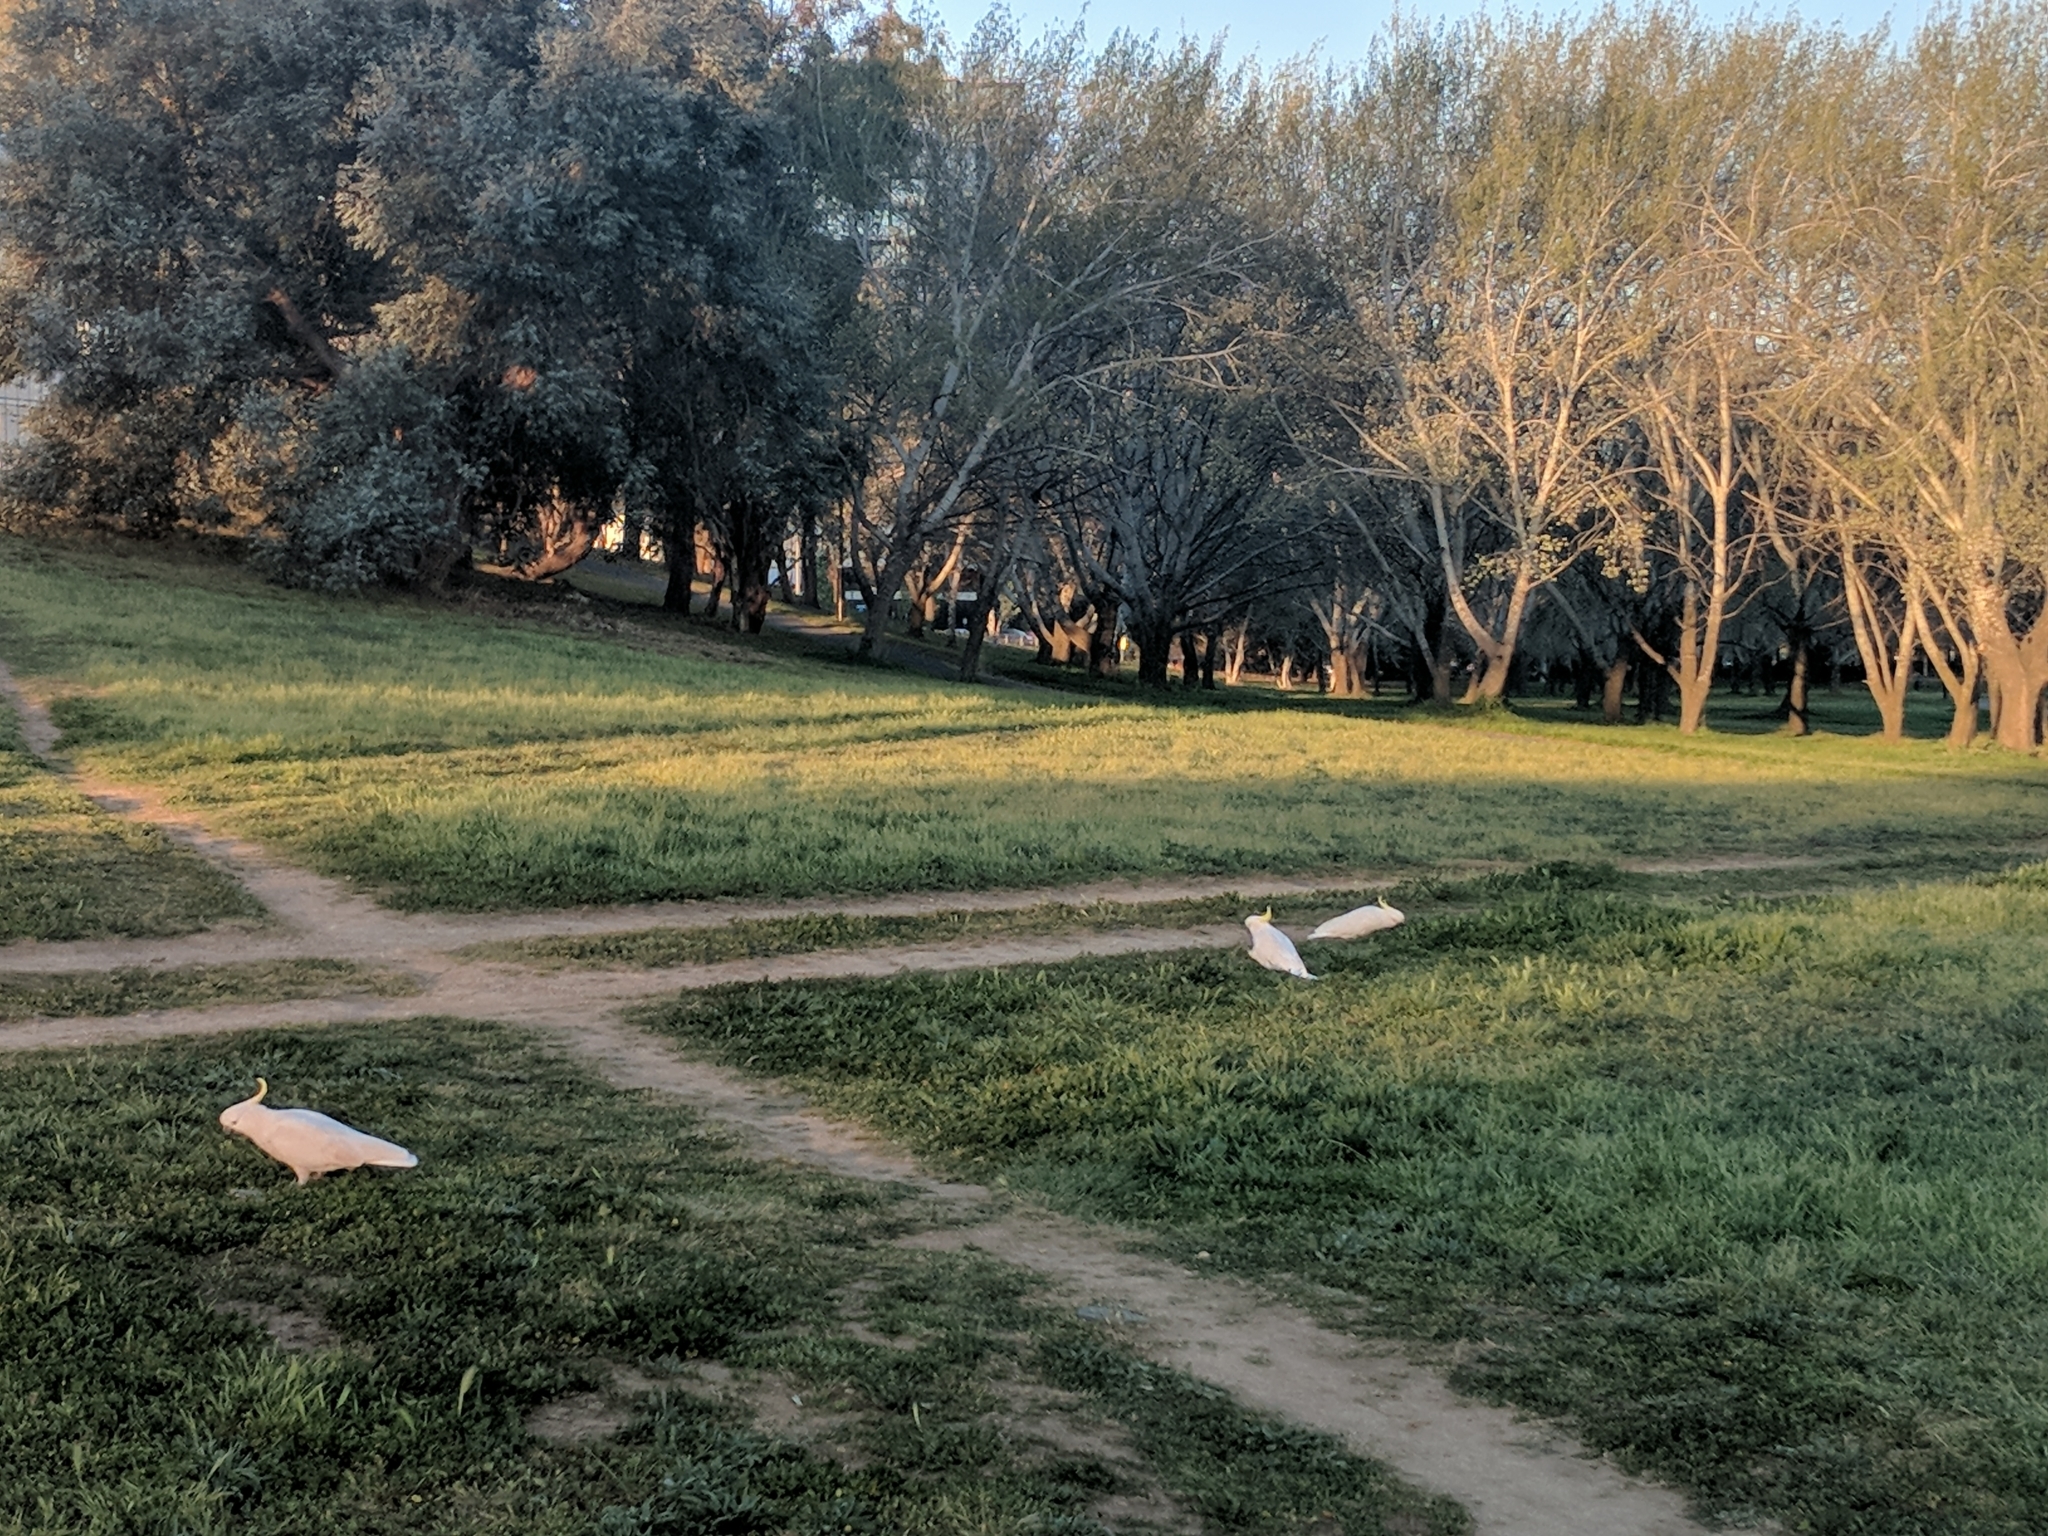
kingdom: Animalia
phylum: Chordata
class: Aves
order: Psittaciformes
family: Psittacidae
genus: Cacatua
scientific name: Cacatua galerita
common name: Sulphur-crested cockatoo
